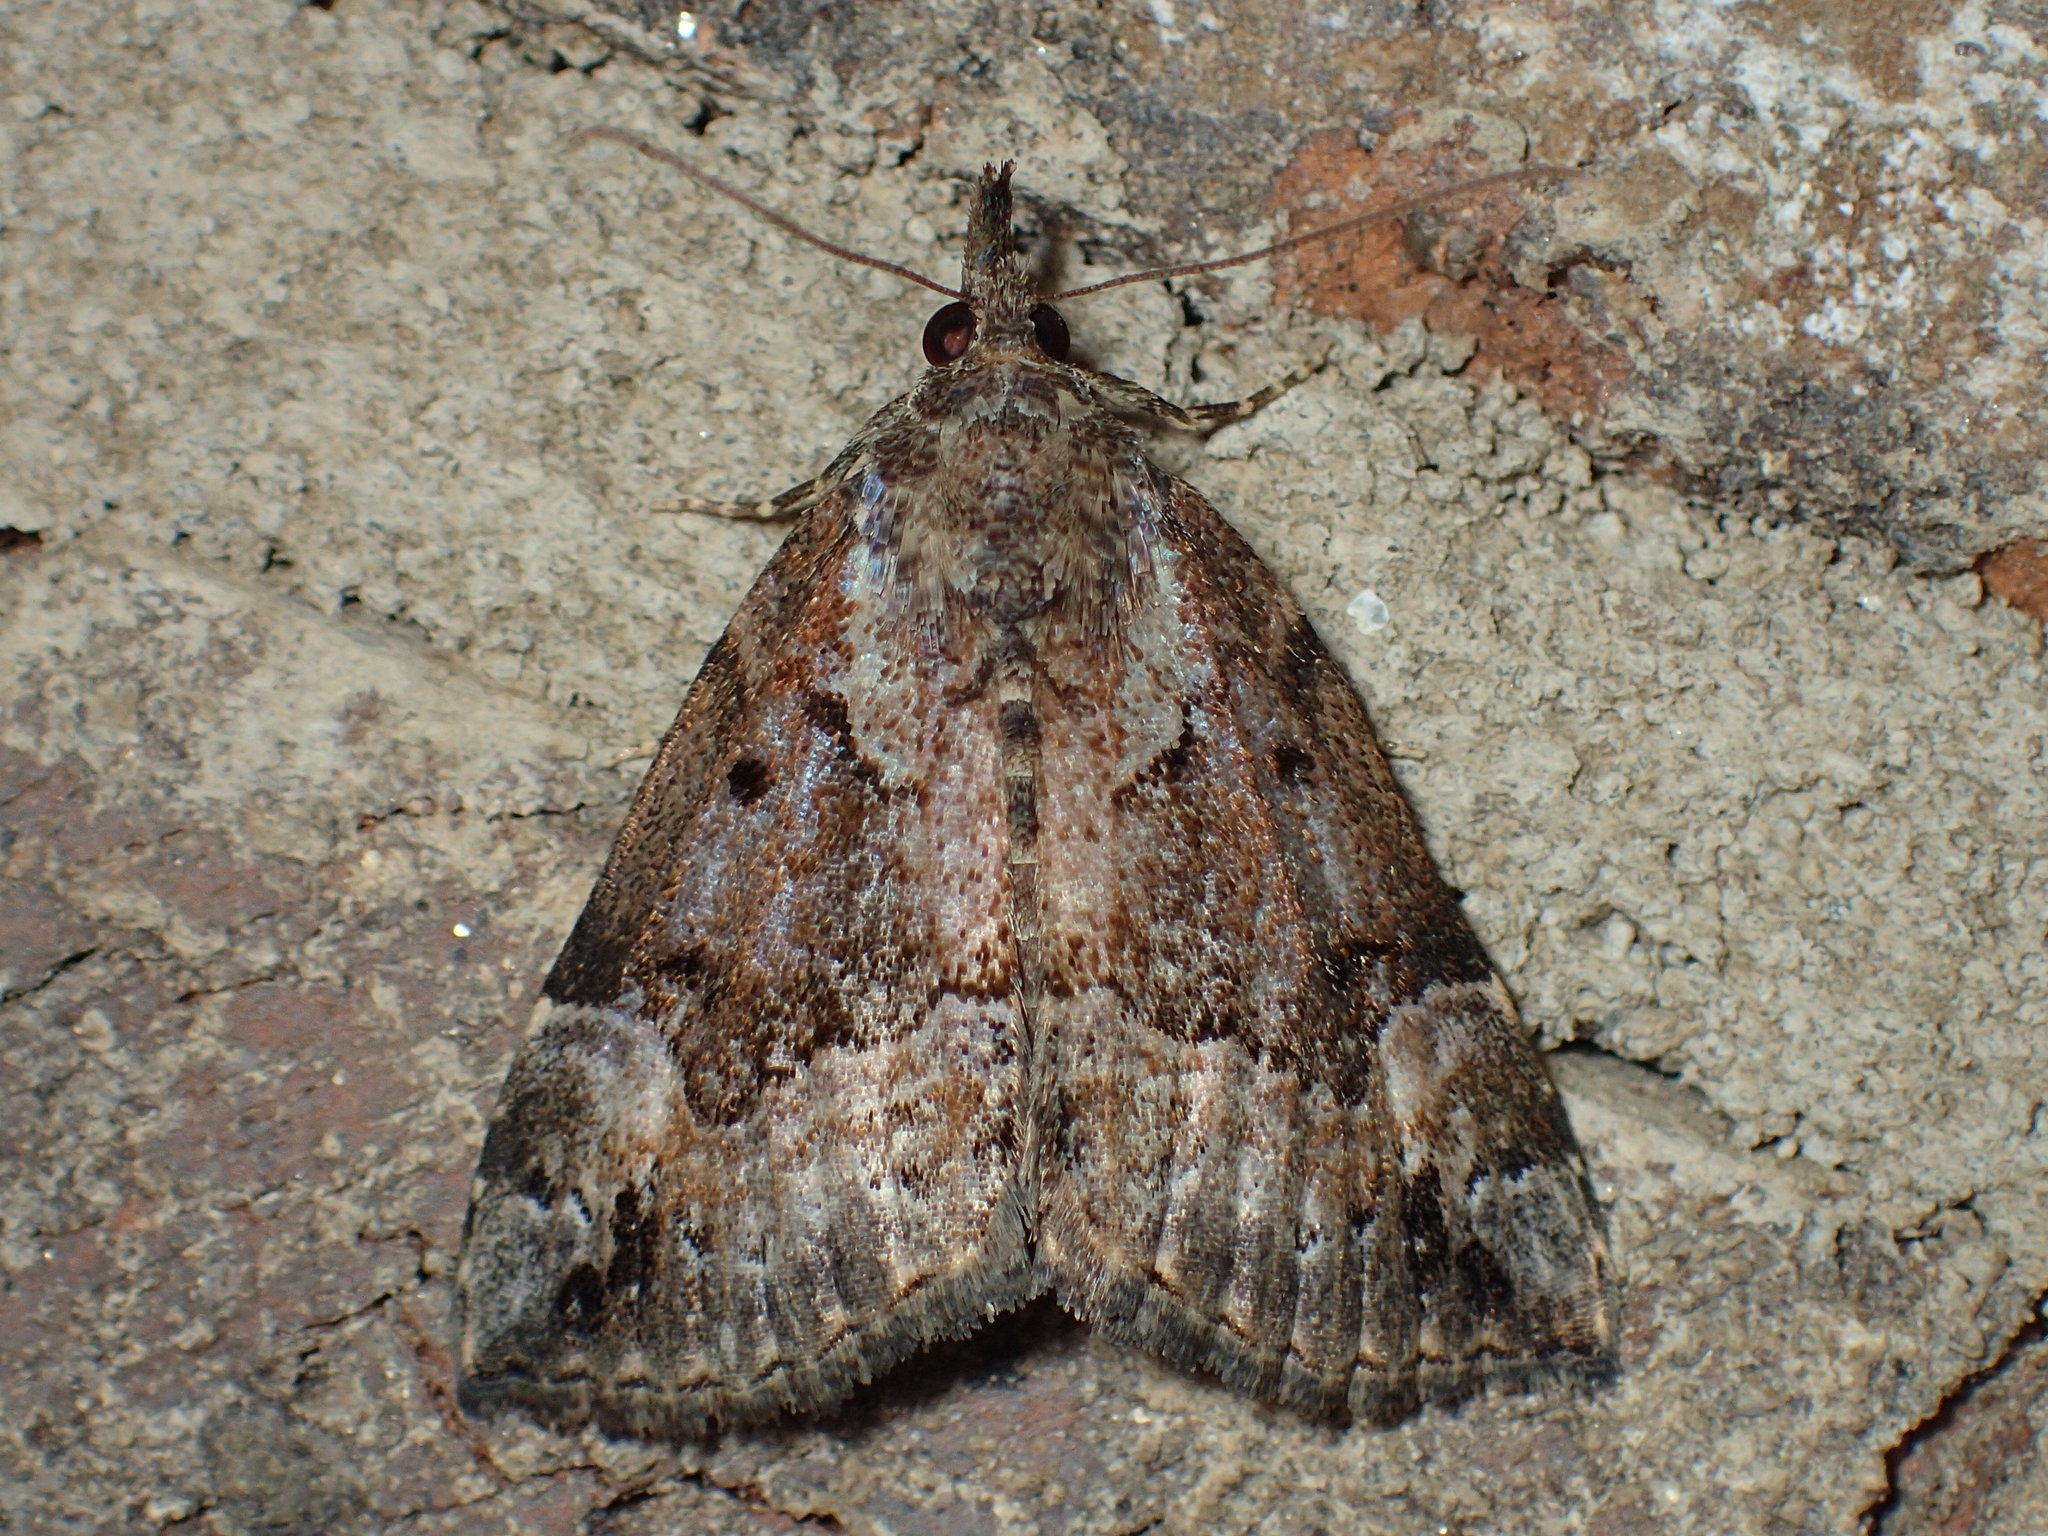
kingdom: Animalia
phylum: Arthropoda
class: Insecta
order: Lepidoptera
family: Erebidae
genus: Hypena
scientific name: Hypena palparia
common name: Mottled bomolocha moth
